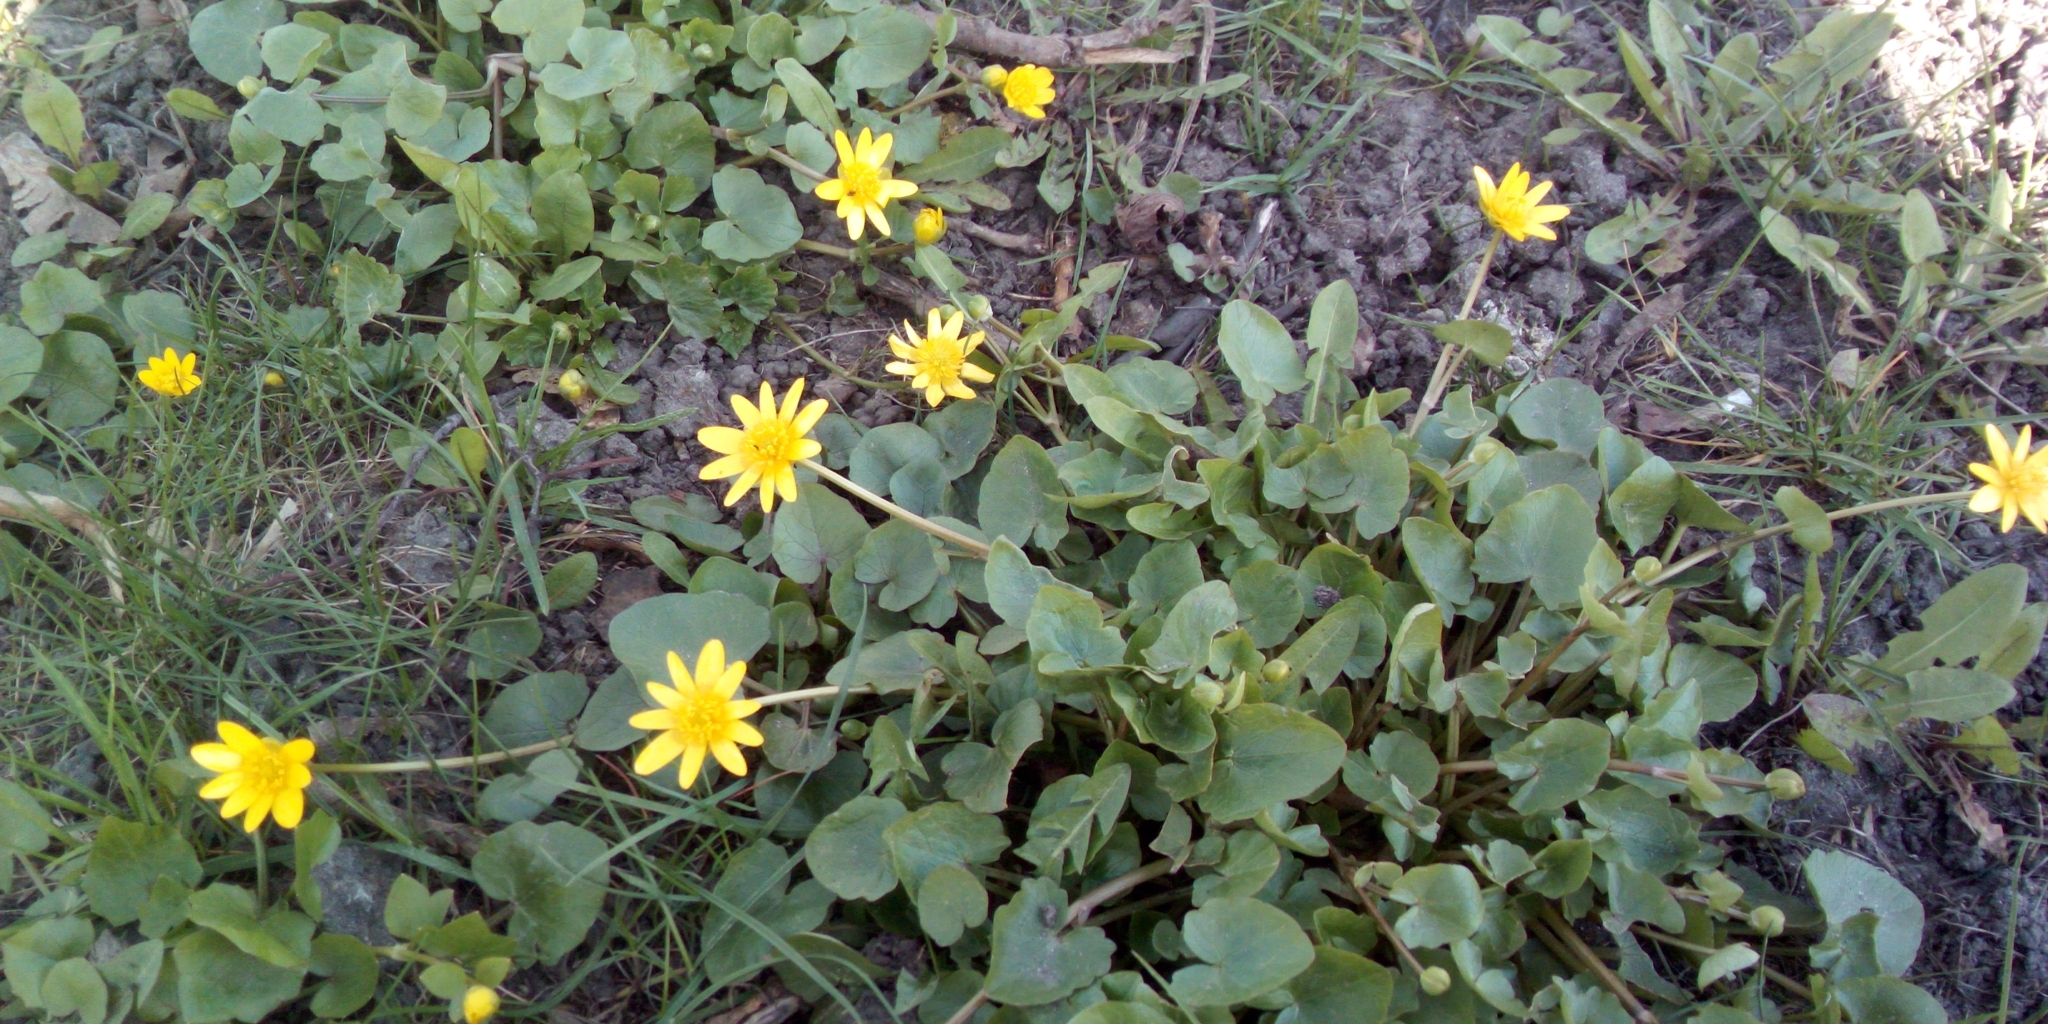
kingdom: Plantae
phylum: Tracheophyta
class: Magnoliopsida
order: Ranunculales
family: Ranunculaceae
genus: Ficaria
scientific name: Ficaria verna
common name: Lesser celandine
